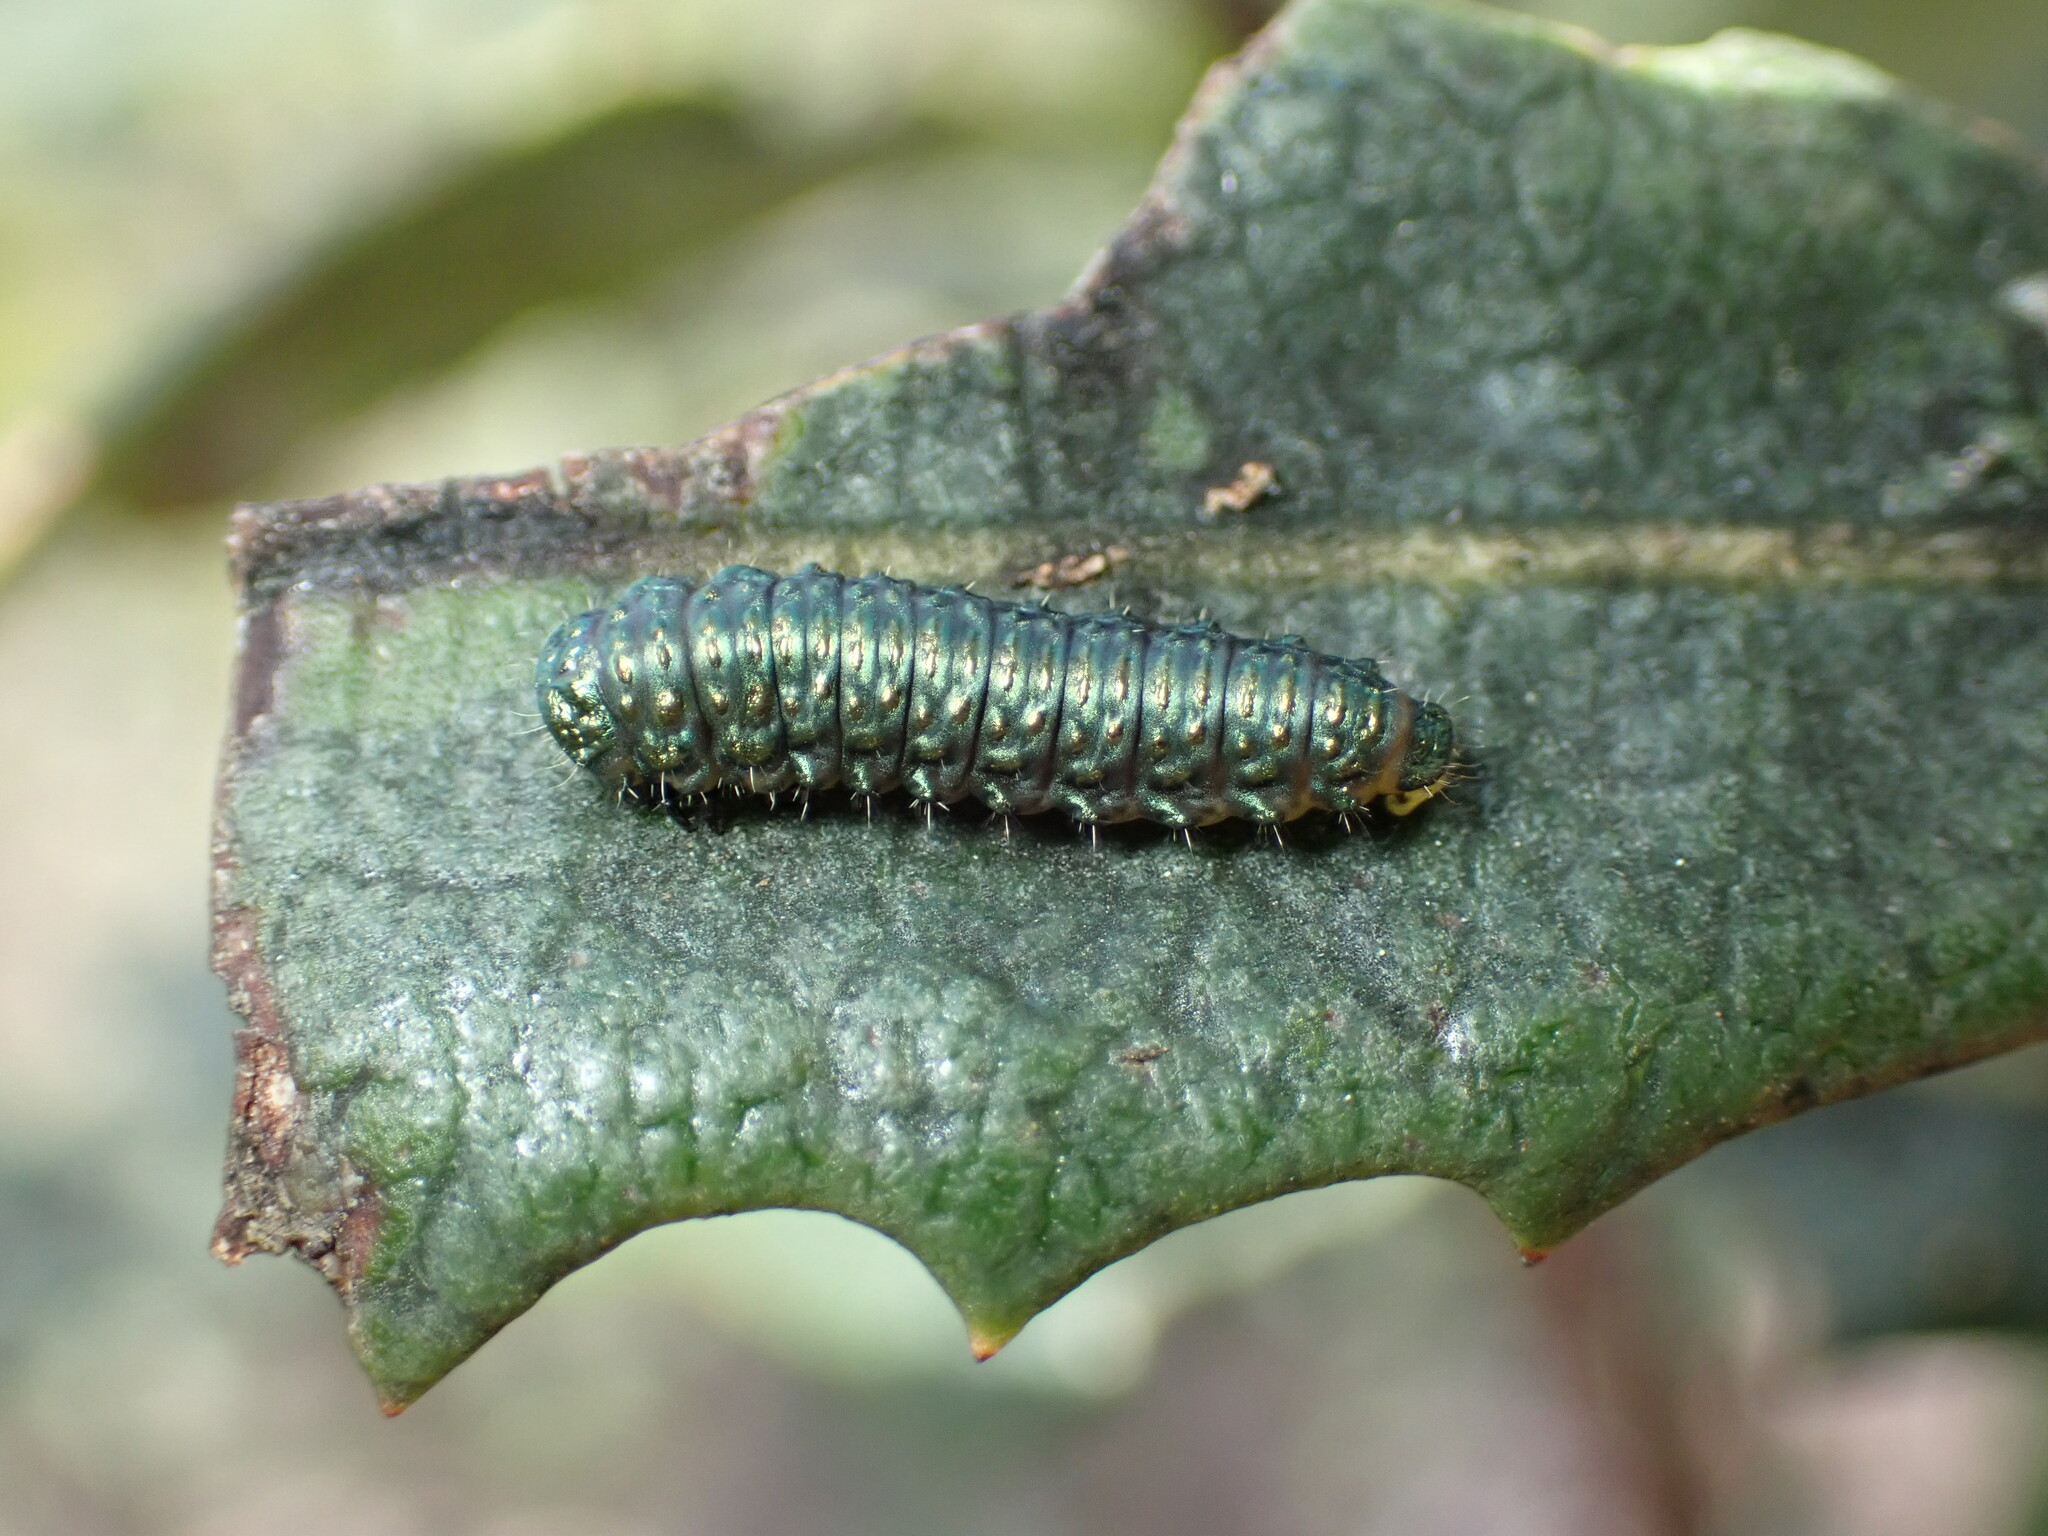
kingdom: Animalia
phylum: Arthropoda
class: Insecta
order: Coleoptera
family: Chrysomelidae
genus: Trirhabda
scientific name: Trirhabda eriodictyonis
